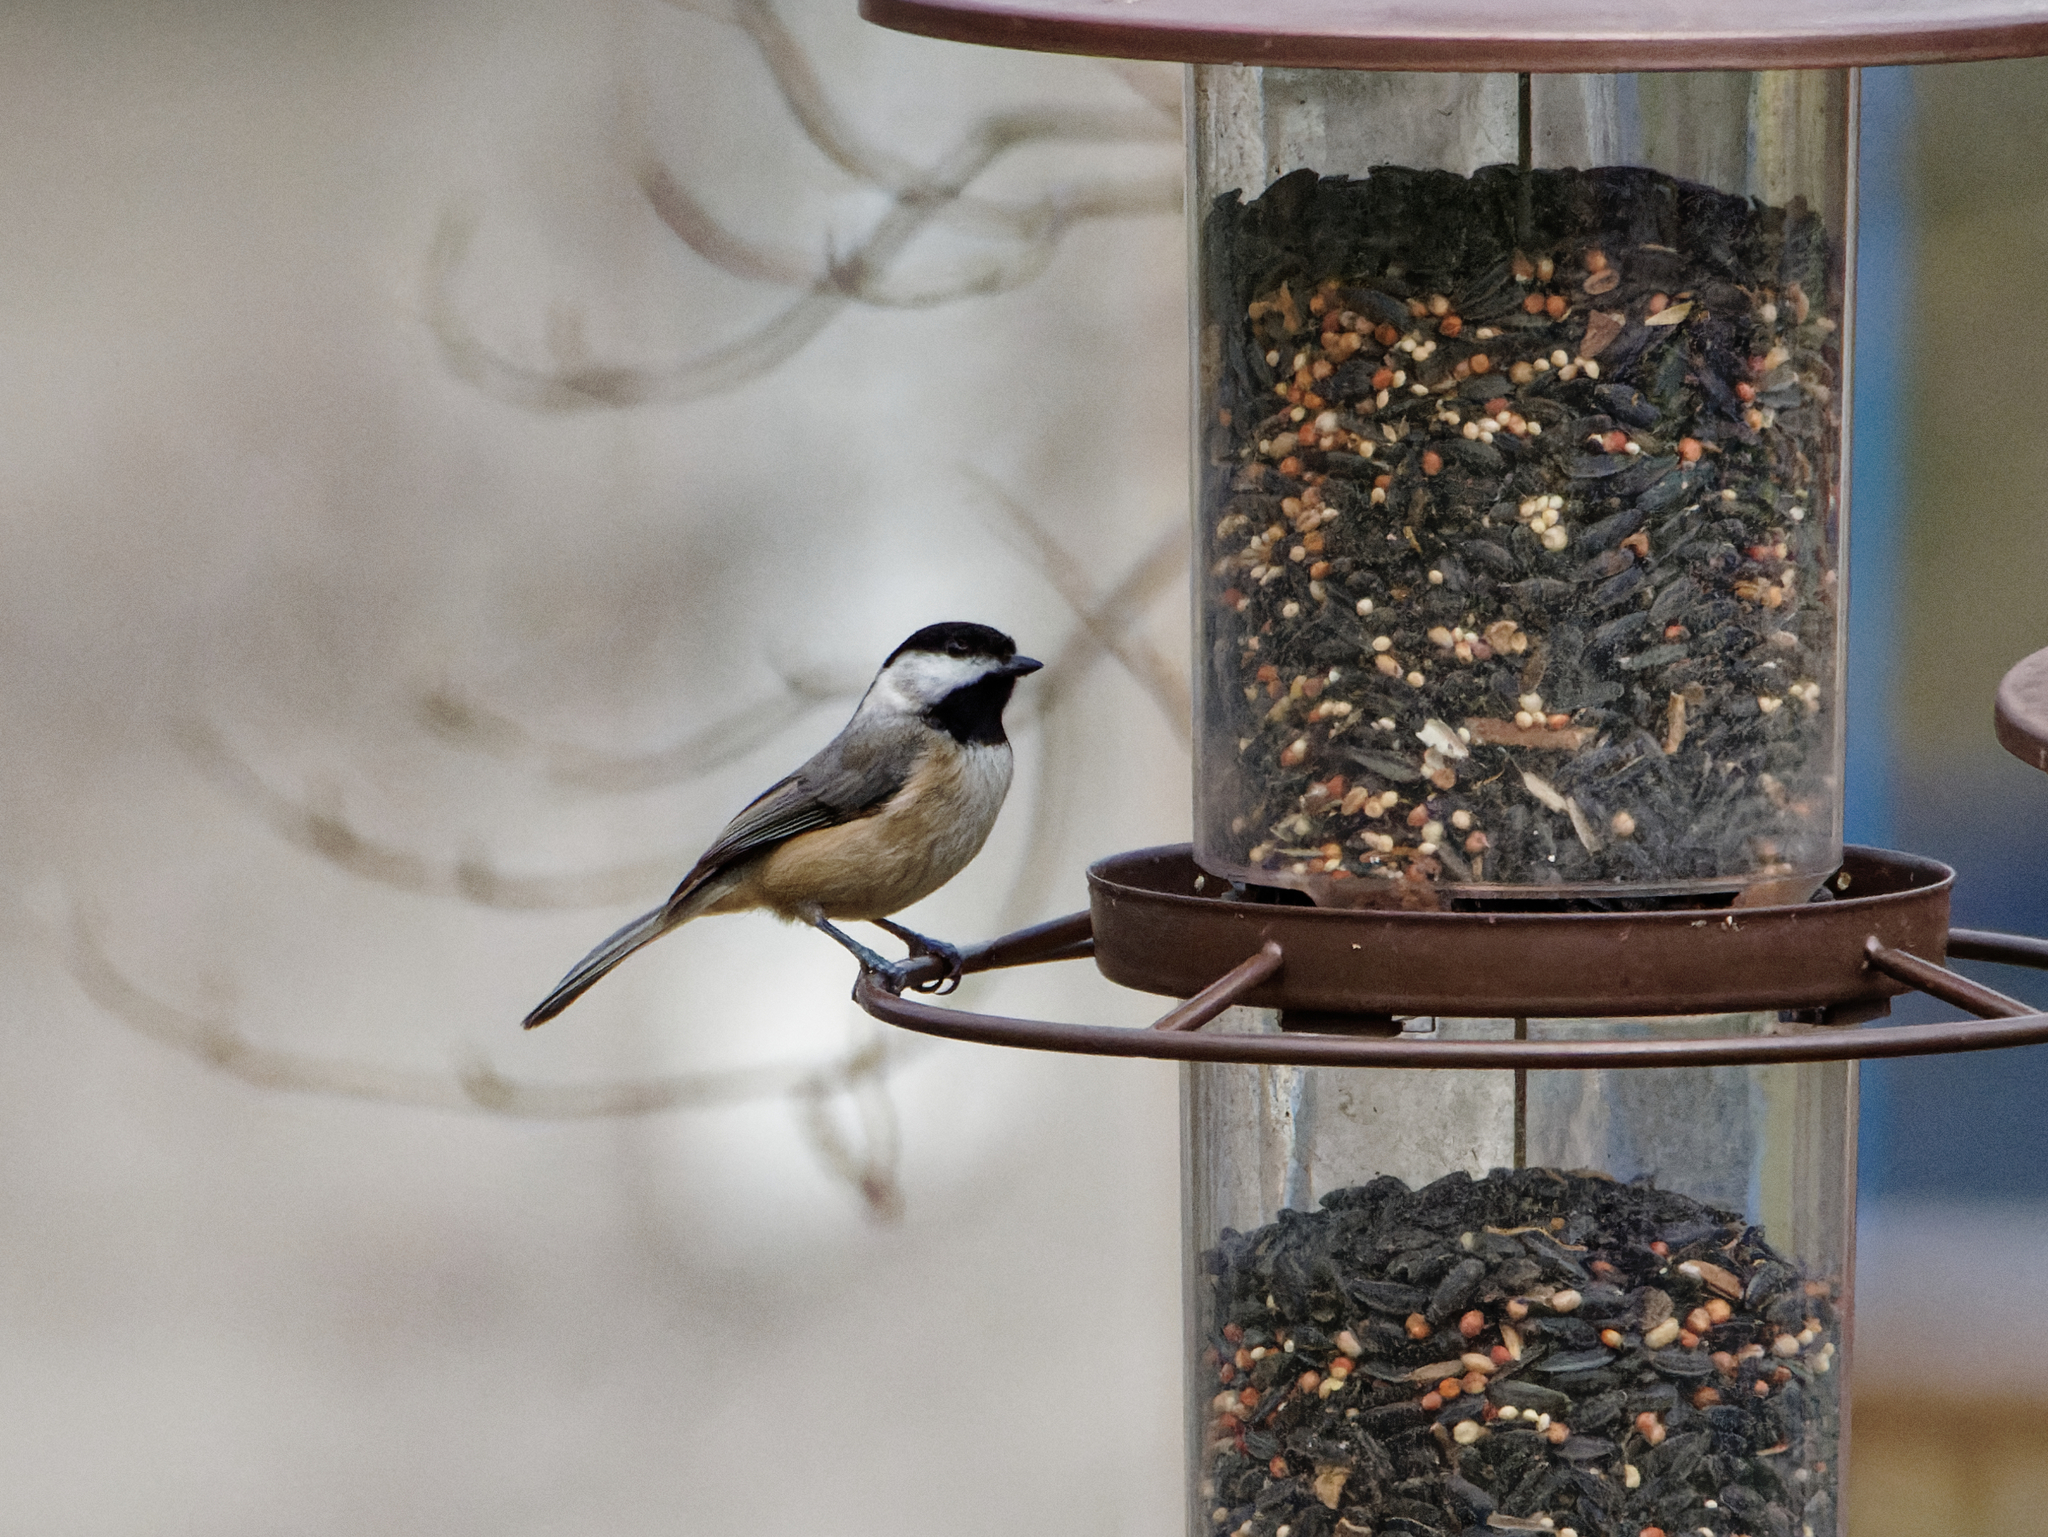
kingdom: Animalia
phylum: Chordata
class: Aves
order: Passeriformes
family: Paridae
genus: Poecile
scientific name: Poecile carolinensis
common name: Carolina chickadee
